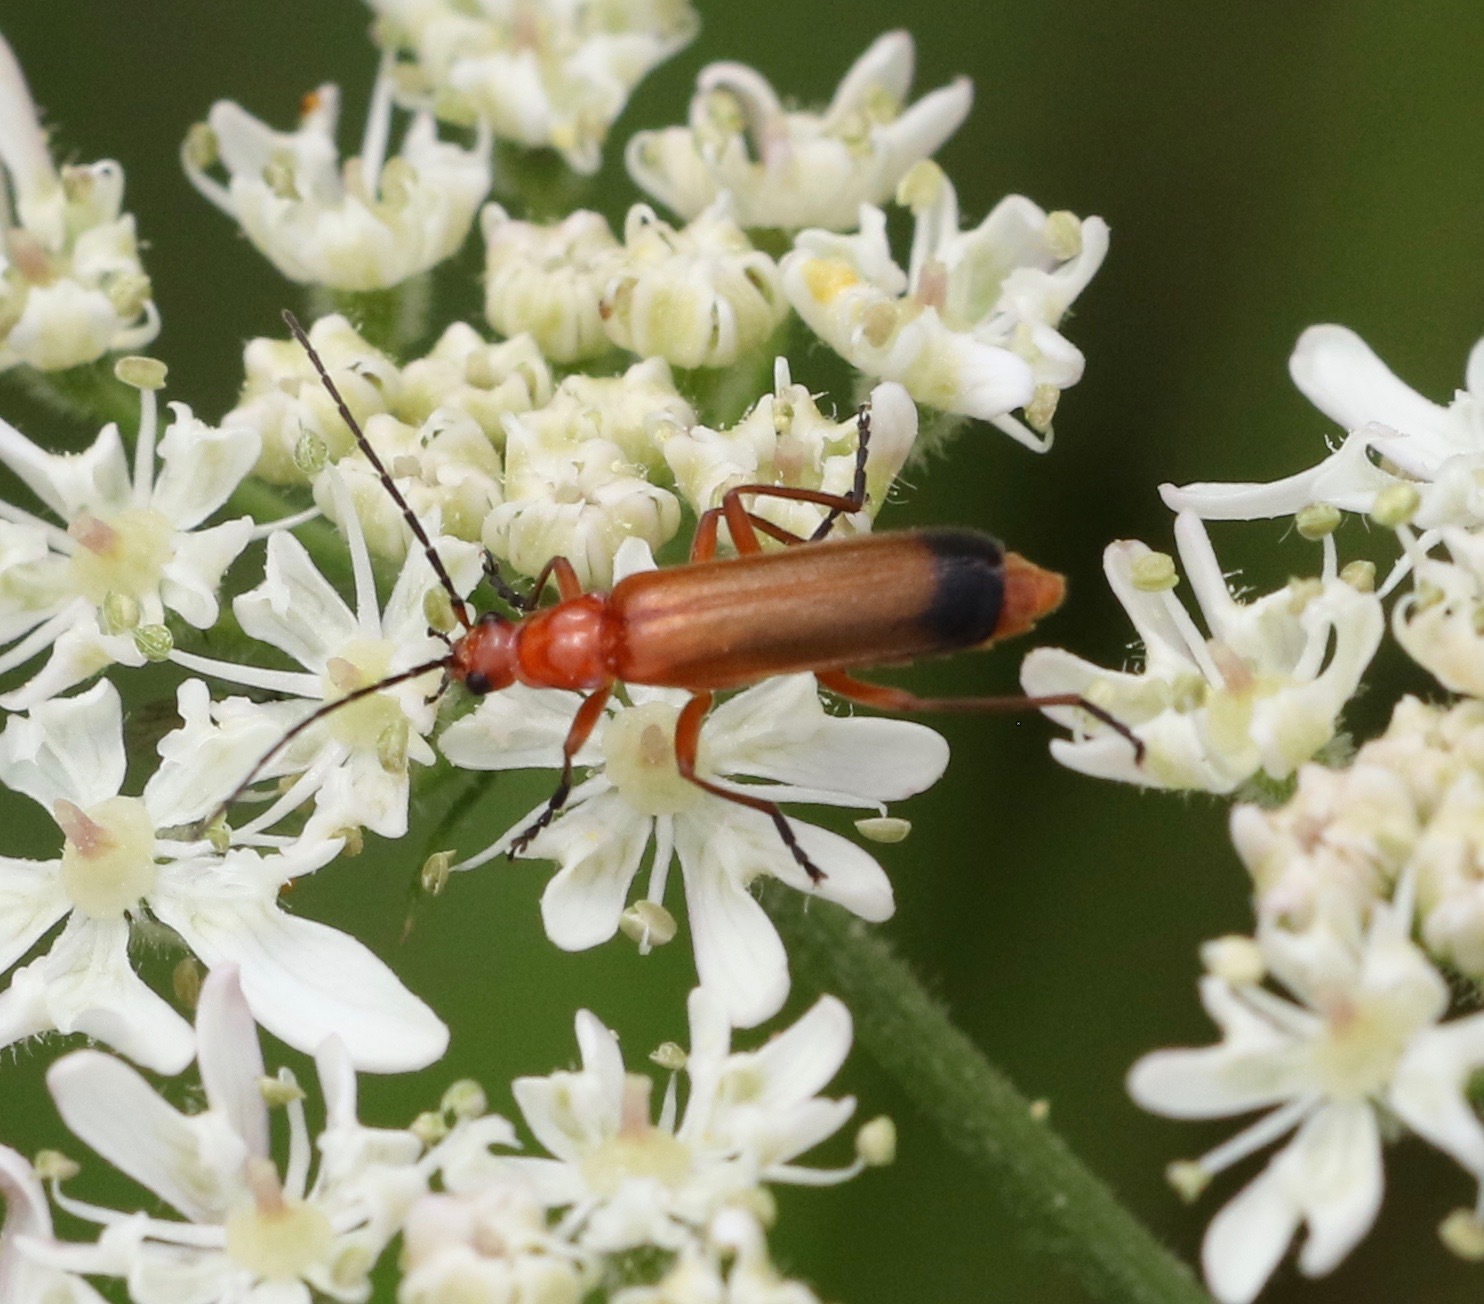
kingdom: Animalia
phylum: Arthropoda
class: Insecta
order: Coleoptera
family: Cantharidae
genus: Rhagonycha
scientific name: Rhagonycha fulva
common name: Common red soldier beetle
